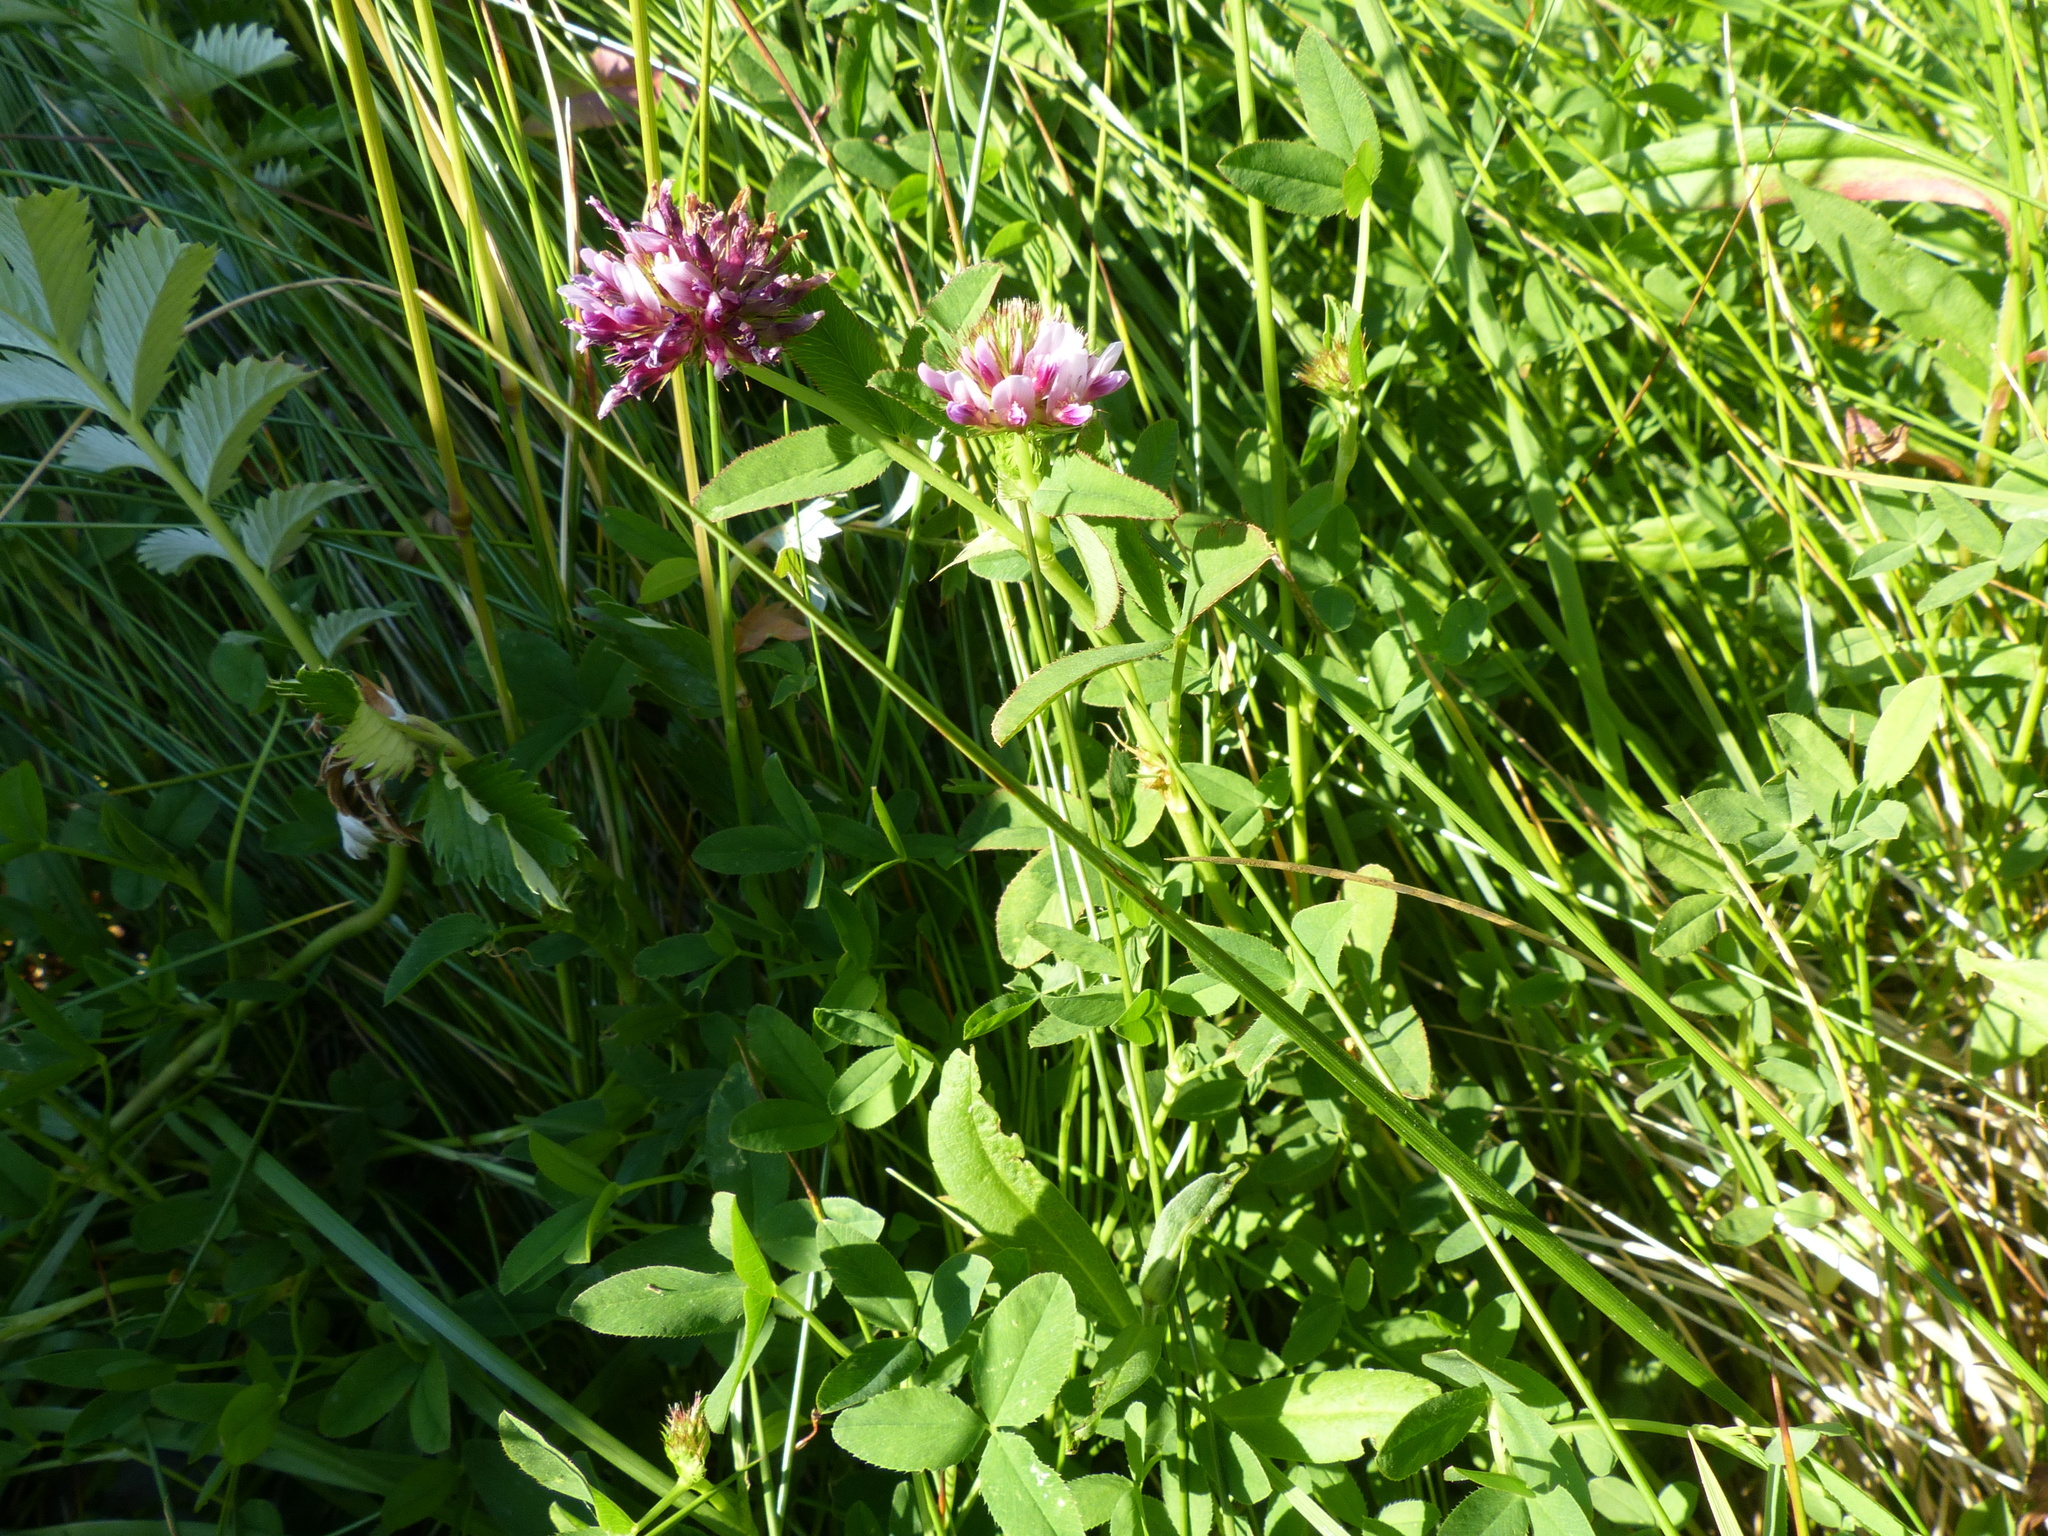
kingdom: Plantae
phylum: Tracheophyta
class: Magnoliopsida
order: Fabales
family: Fabaceae
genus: Trifolium
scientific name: Trifolium wormskioldii
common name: Springbank clover
